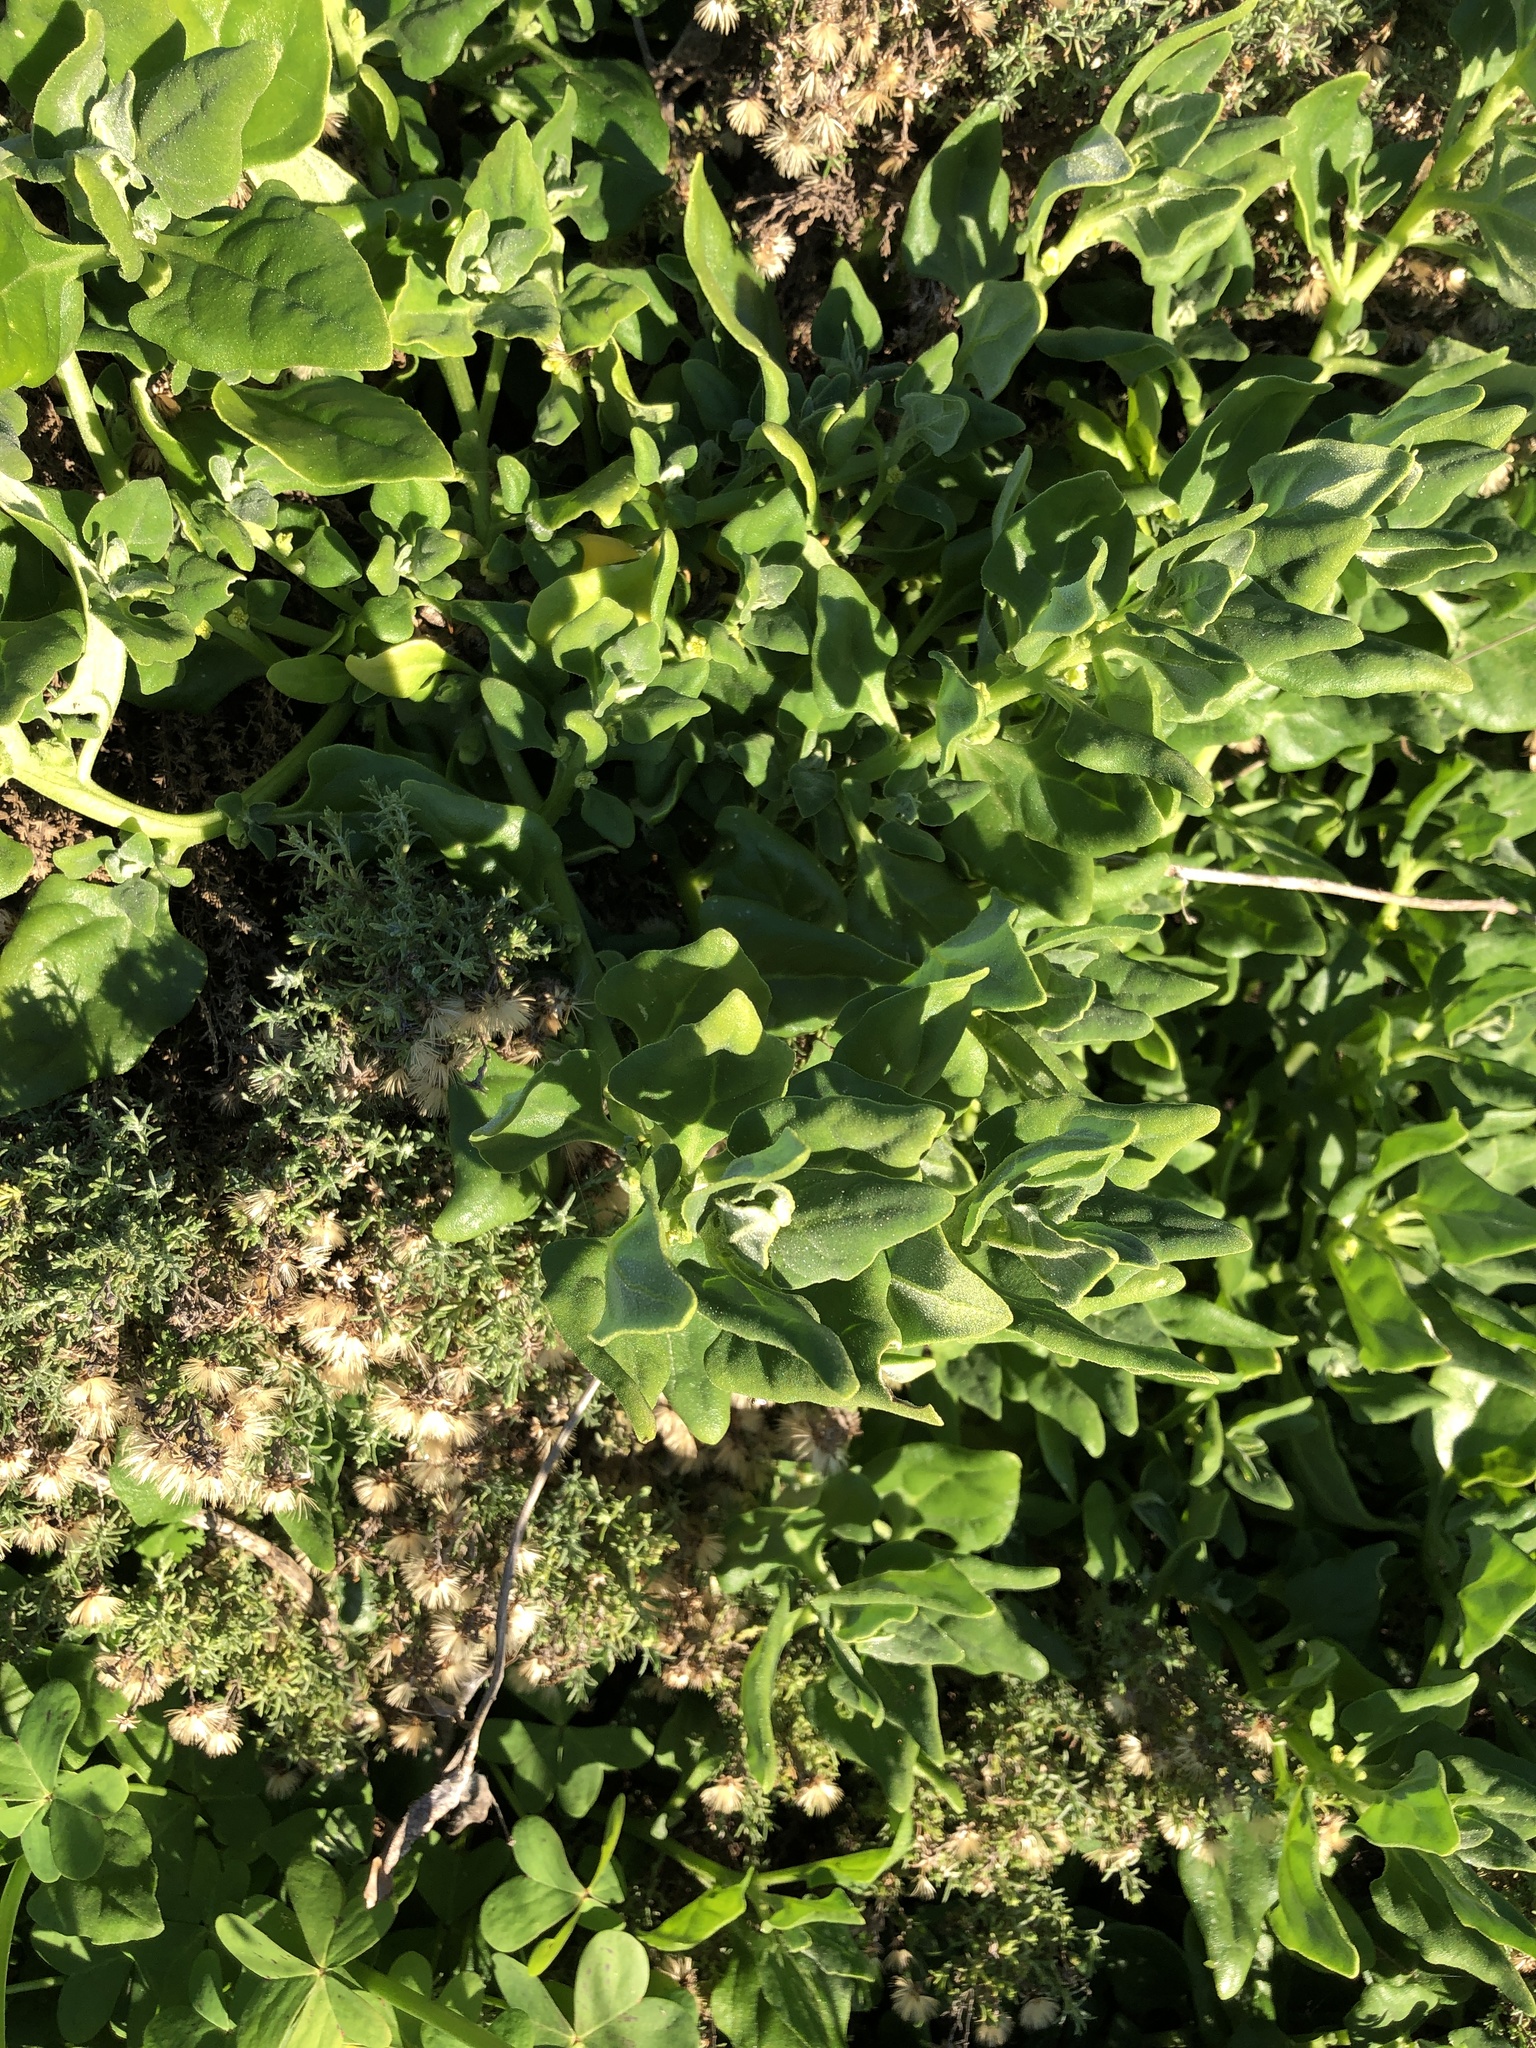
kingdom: Plantae
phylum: Tracheophyta
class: Magnoliopsida
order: Caryophyllales
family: Aizoaceae
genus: Tetragonia
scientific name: Tetragonia tetragonoides
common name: New zealand-spinach
